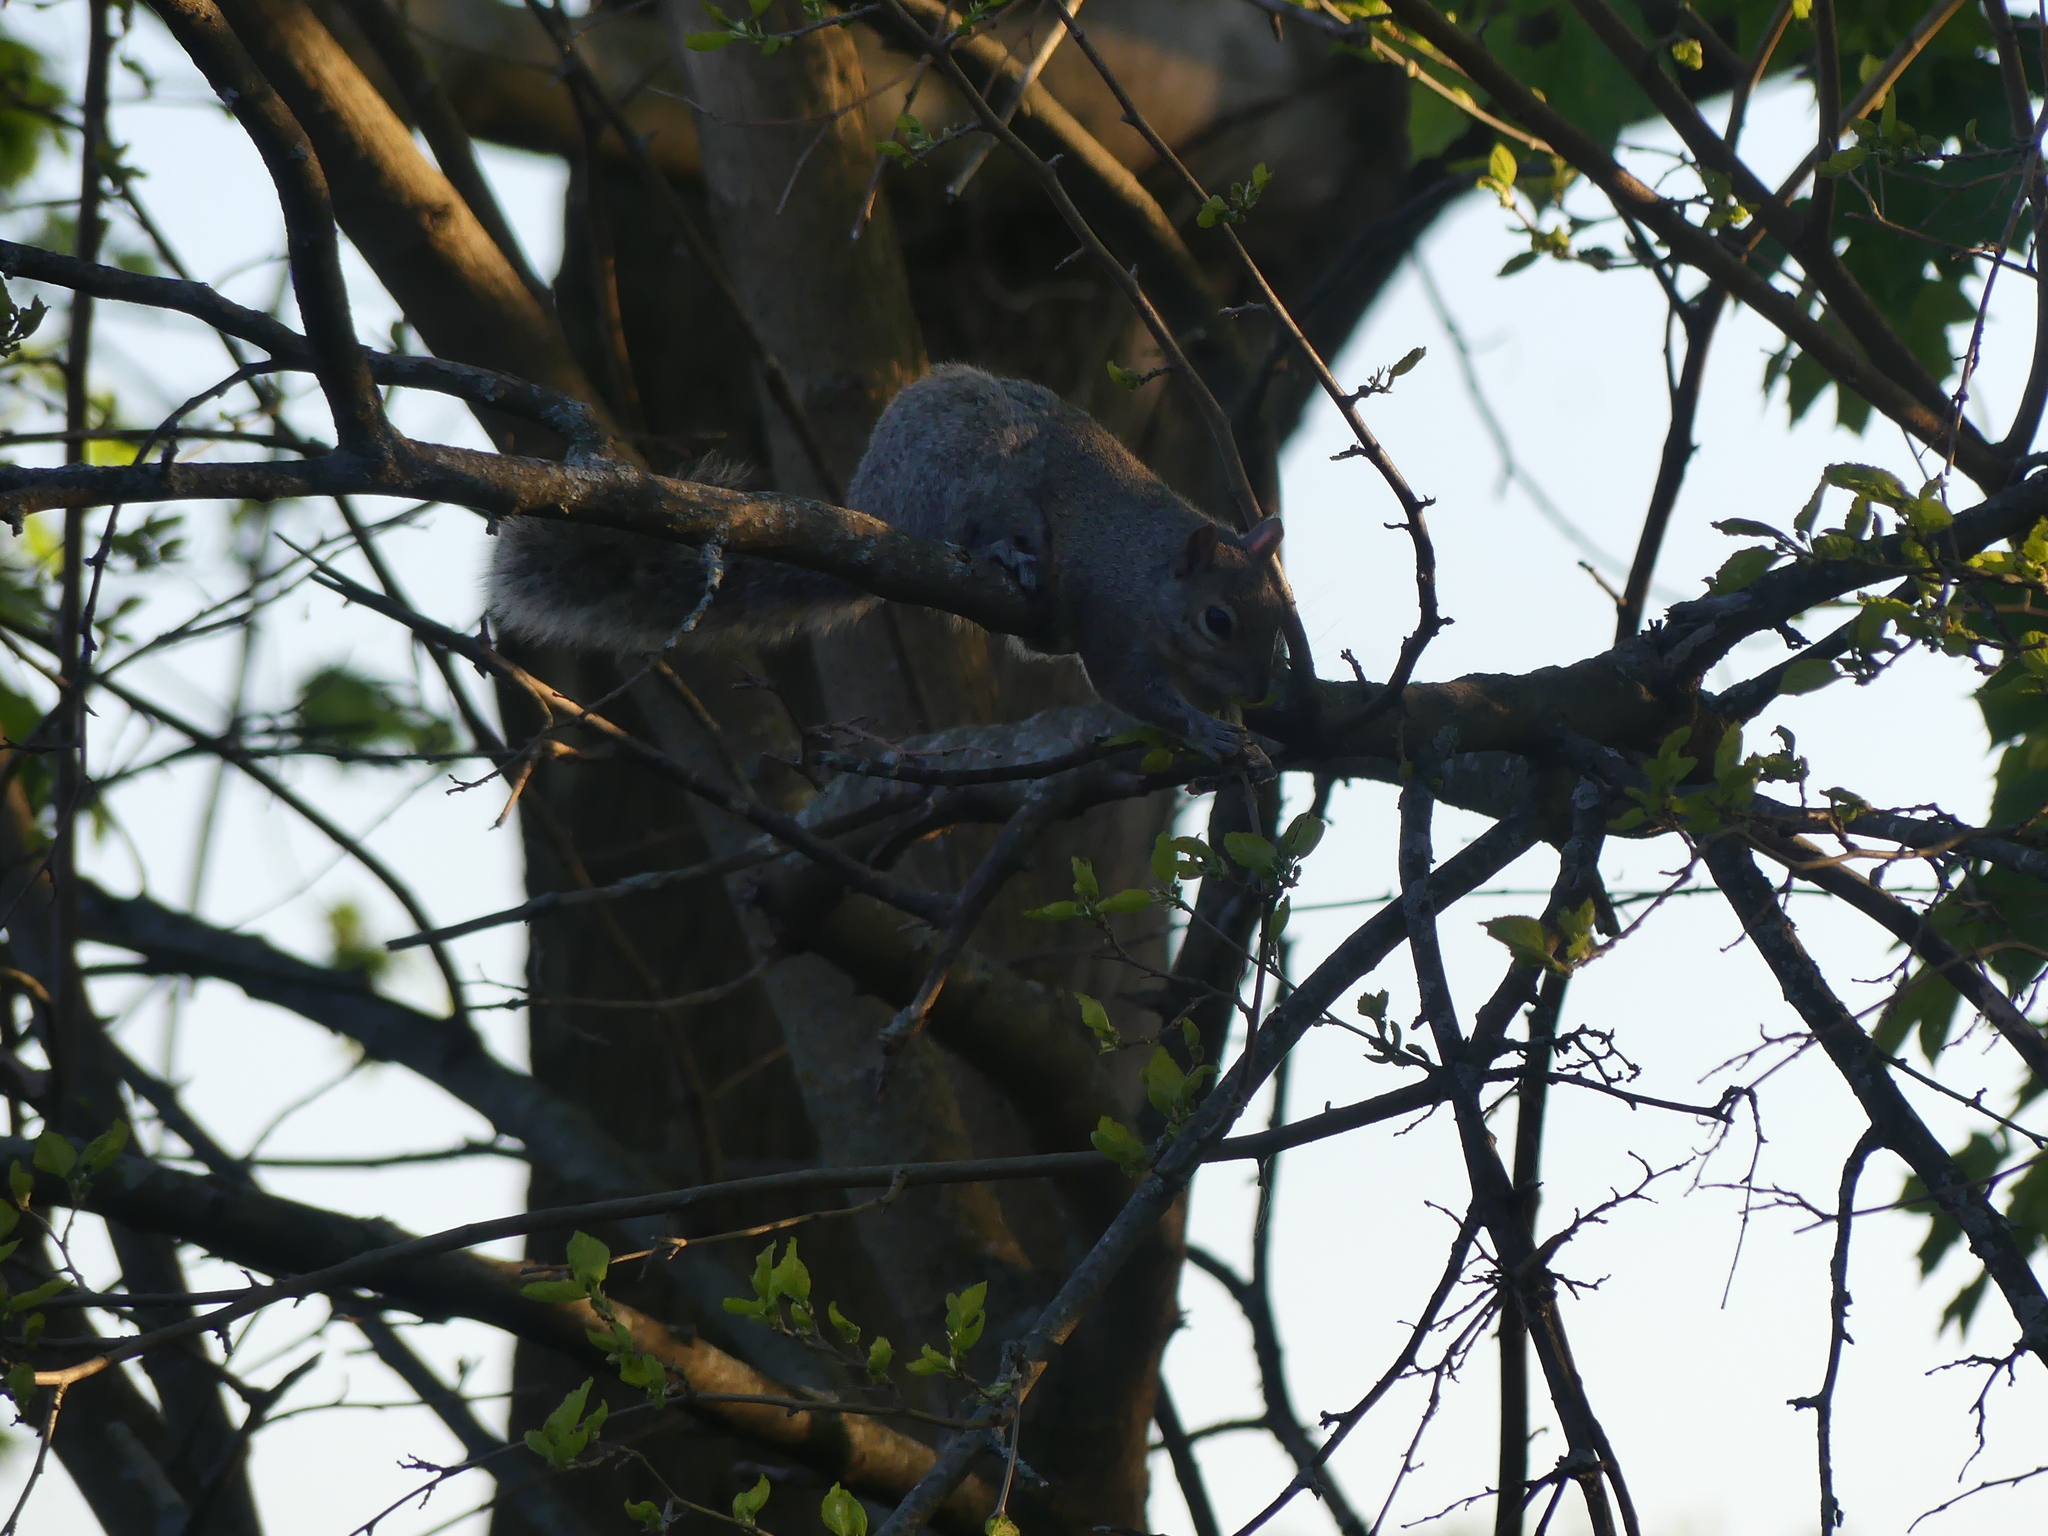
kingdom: Animalia
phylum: Chordata
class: Mammalia
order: Rodentia
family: Sciuridae
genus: Sciurus
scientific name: Sciurus carolinensis
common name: Eastern gray squirrel
